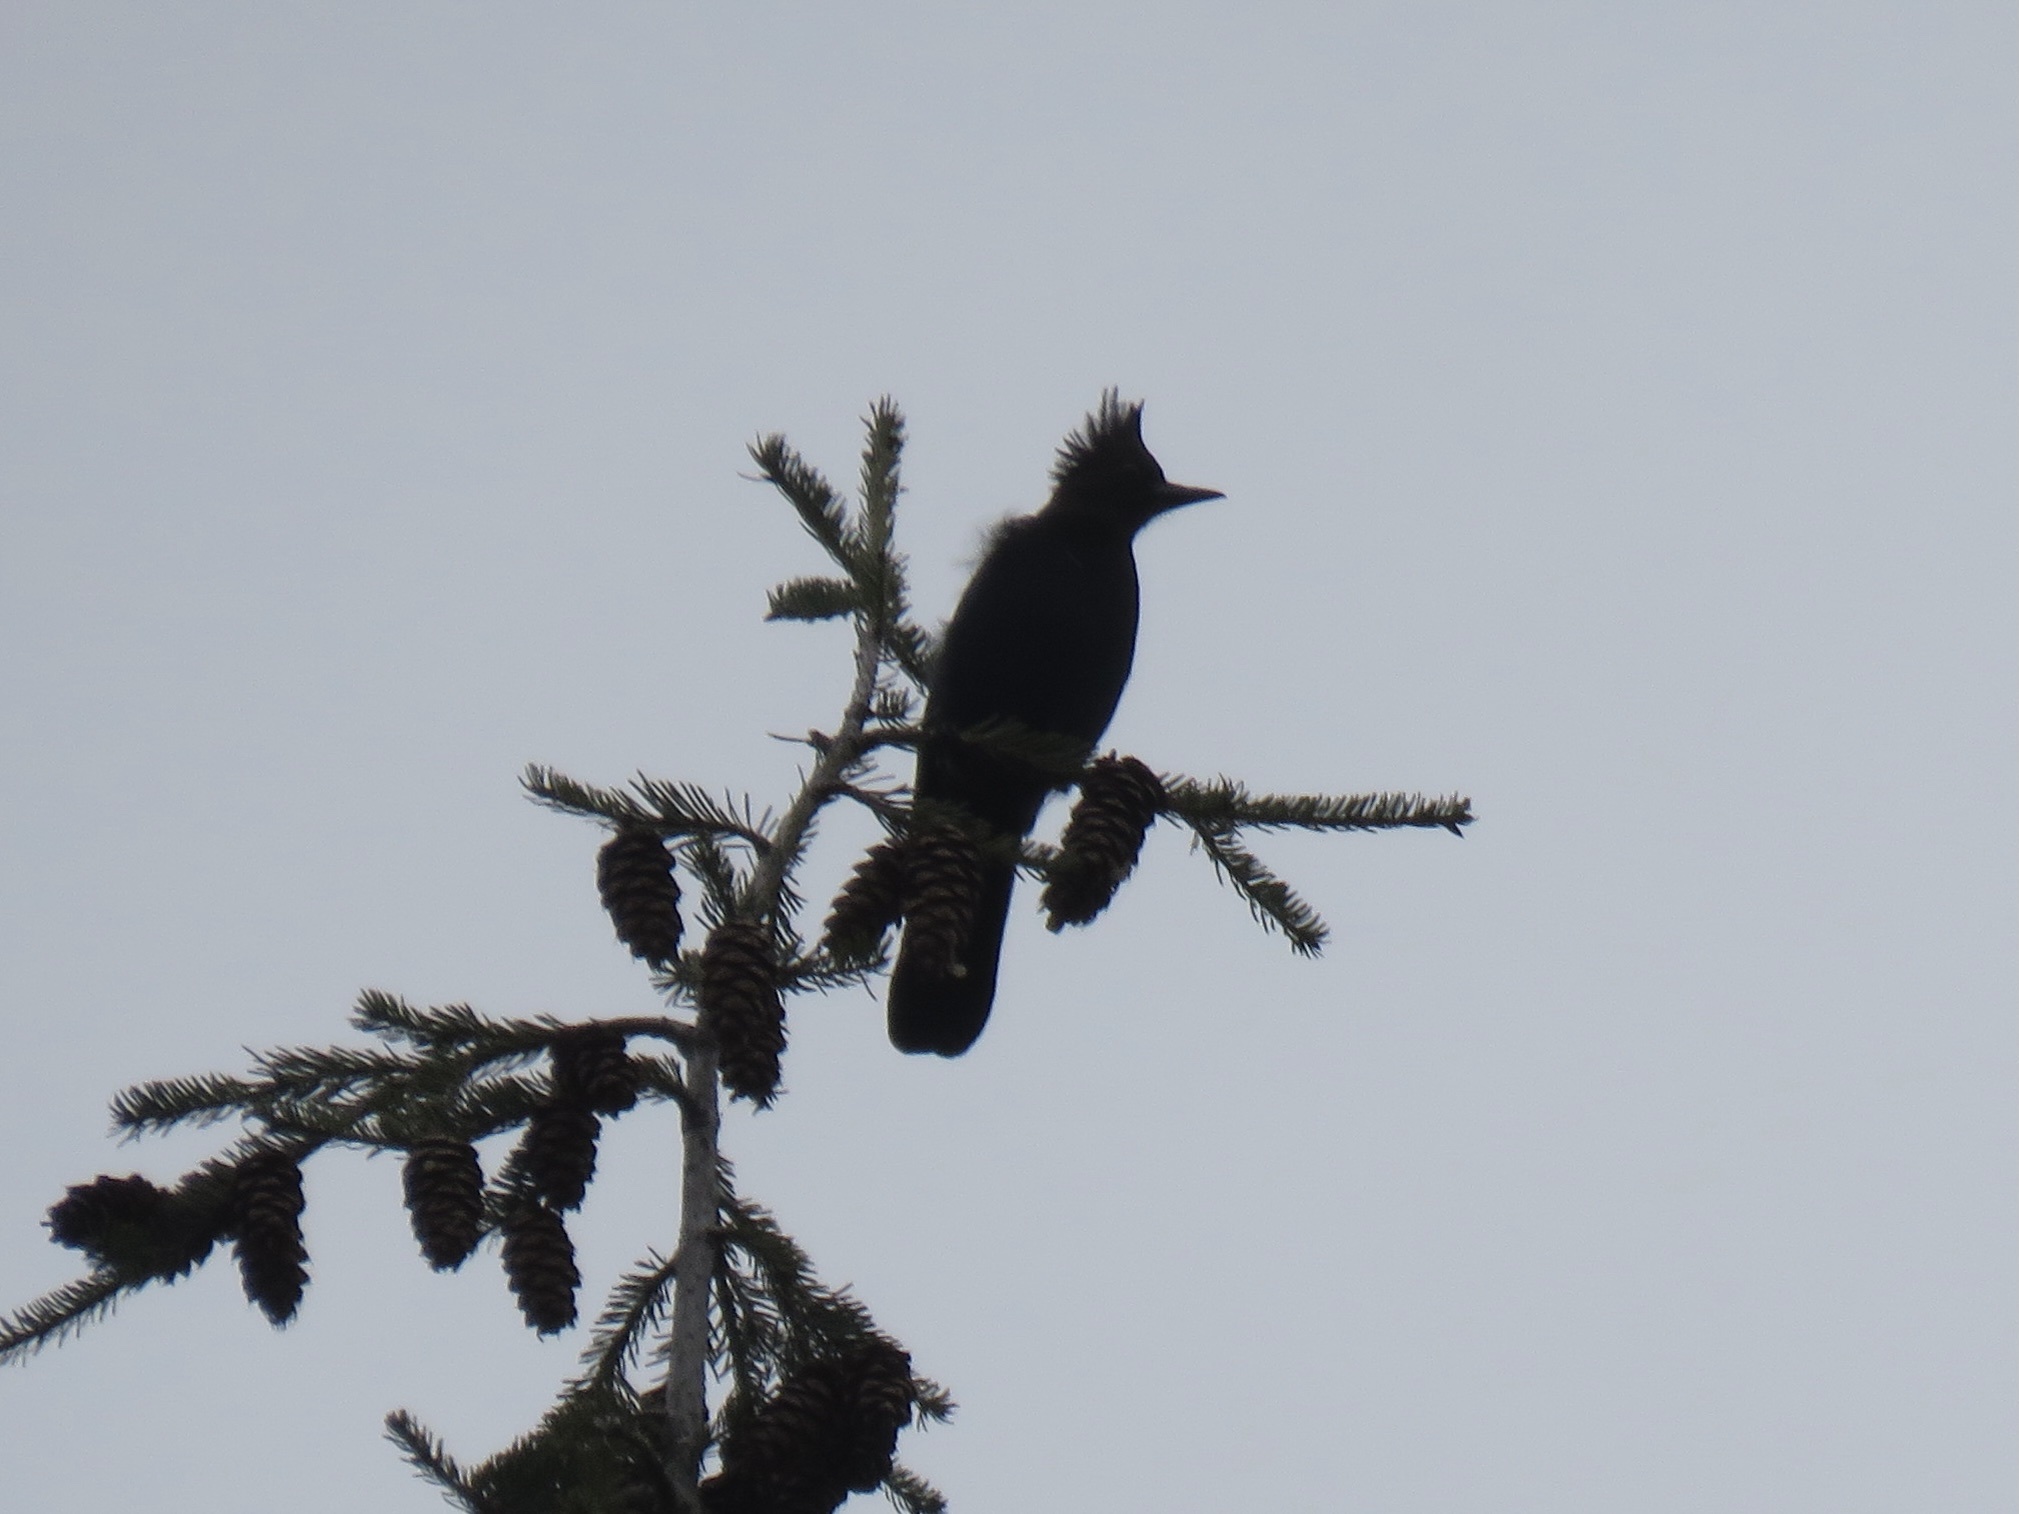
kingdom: Animalia
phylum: Chordata
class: Aves
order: Passeriformes
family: Corvidae
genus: Cyanocitta
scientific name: Cyanocitta stelleri
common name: Steller's jay
